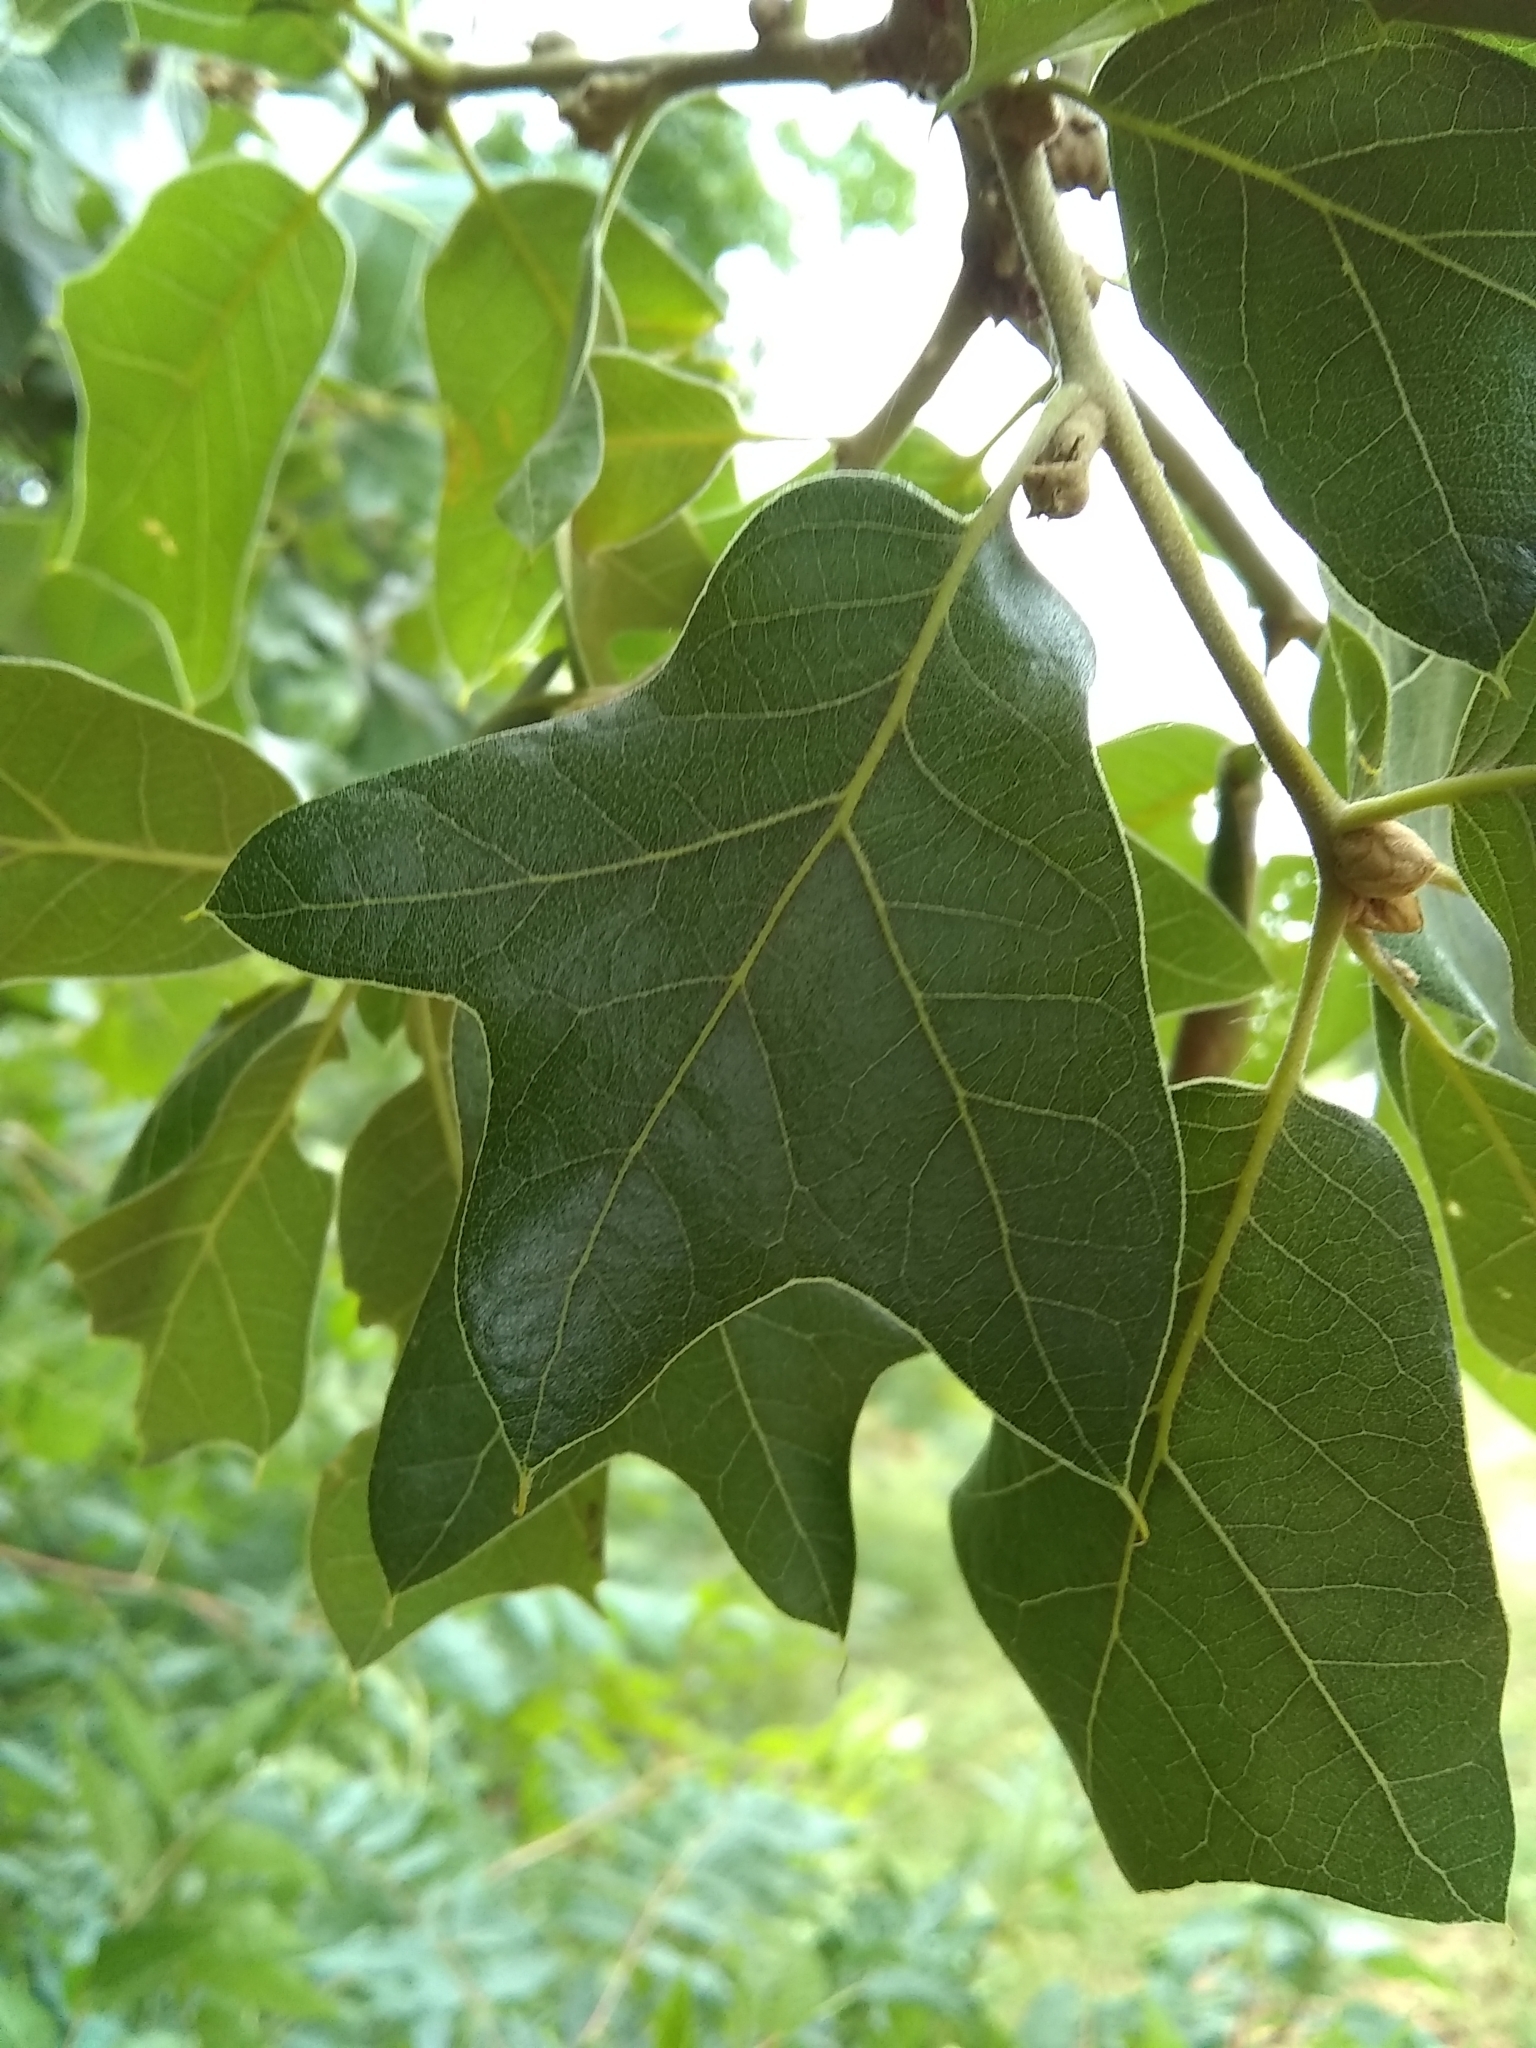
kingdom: Plantae
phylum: Tracheophyta
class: Magnoliopsida
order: Fagales
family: Fagaceae
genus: Quercus
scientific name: Quercus marilandica
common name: Blackjack oak
